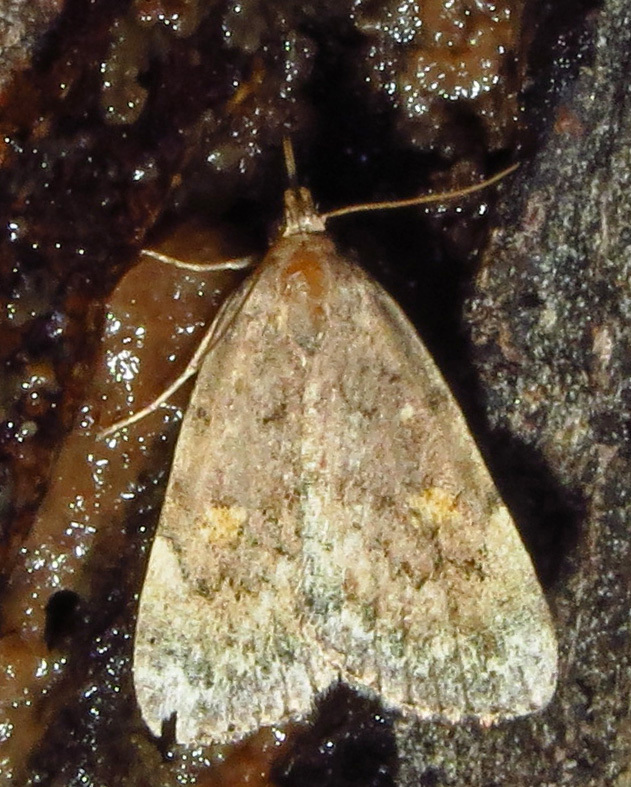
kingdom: Animalia
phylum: Arthropoda
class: Insecta
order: Lepidoptera
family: Erebidae
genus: Idia
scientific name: Idia aemula
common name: Common idia moth
